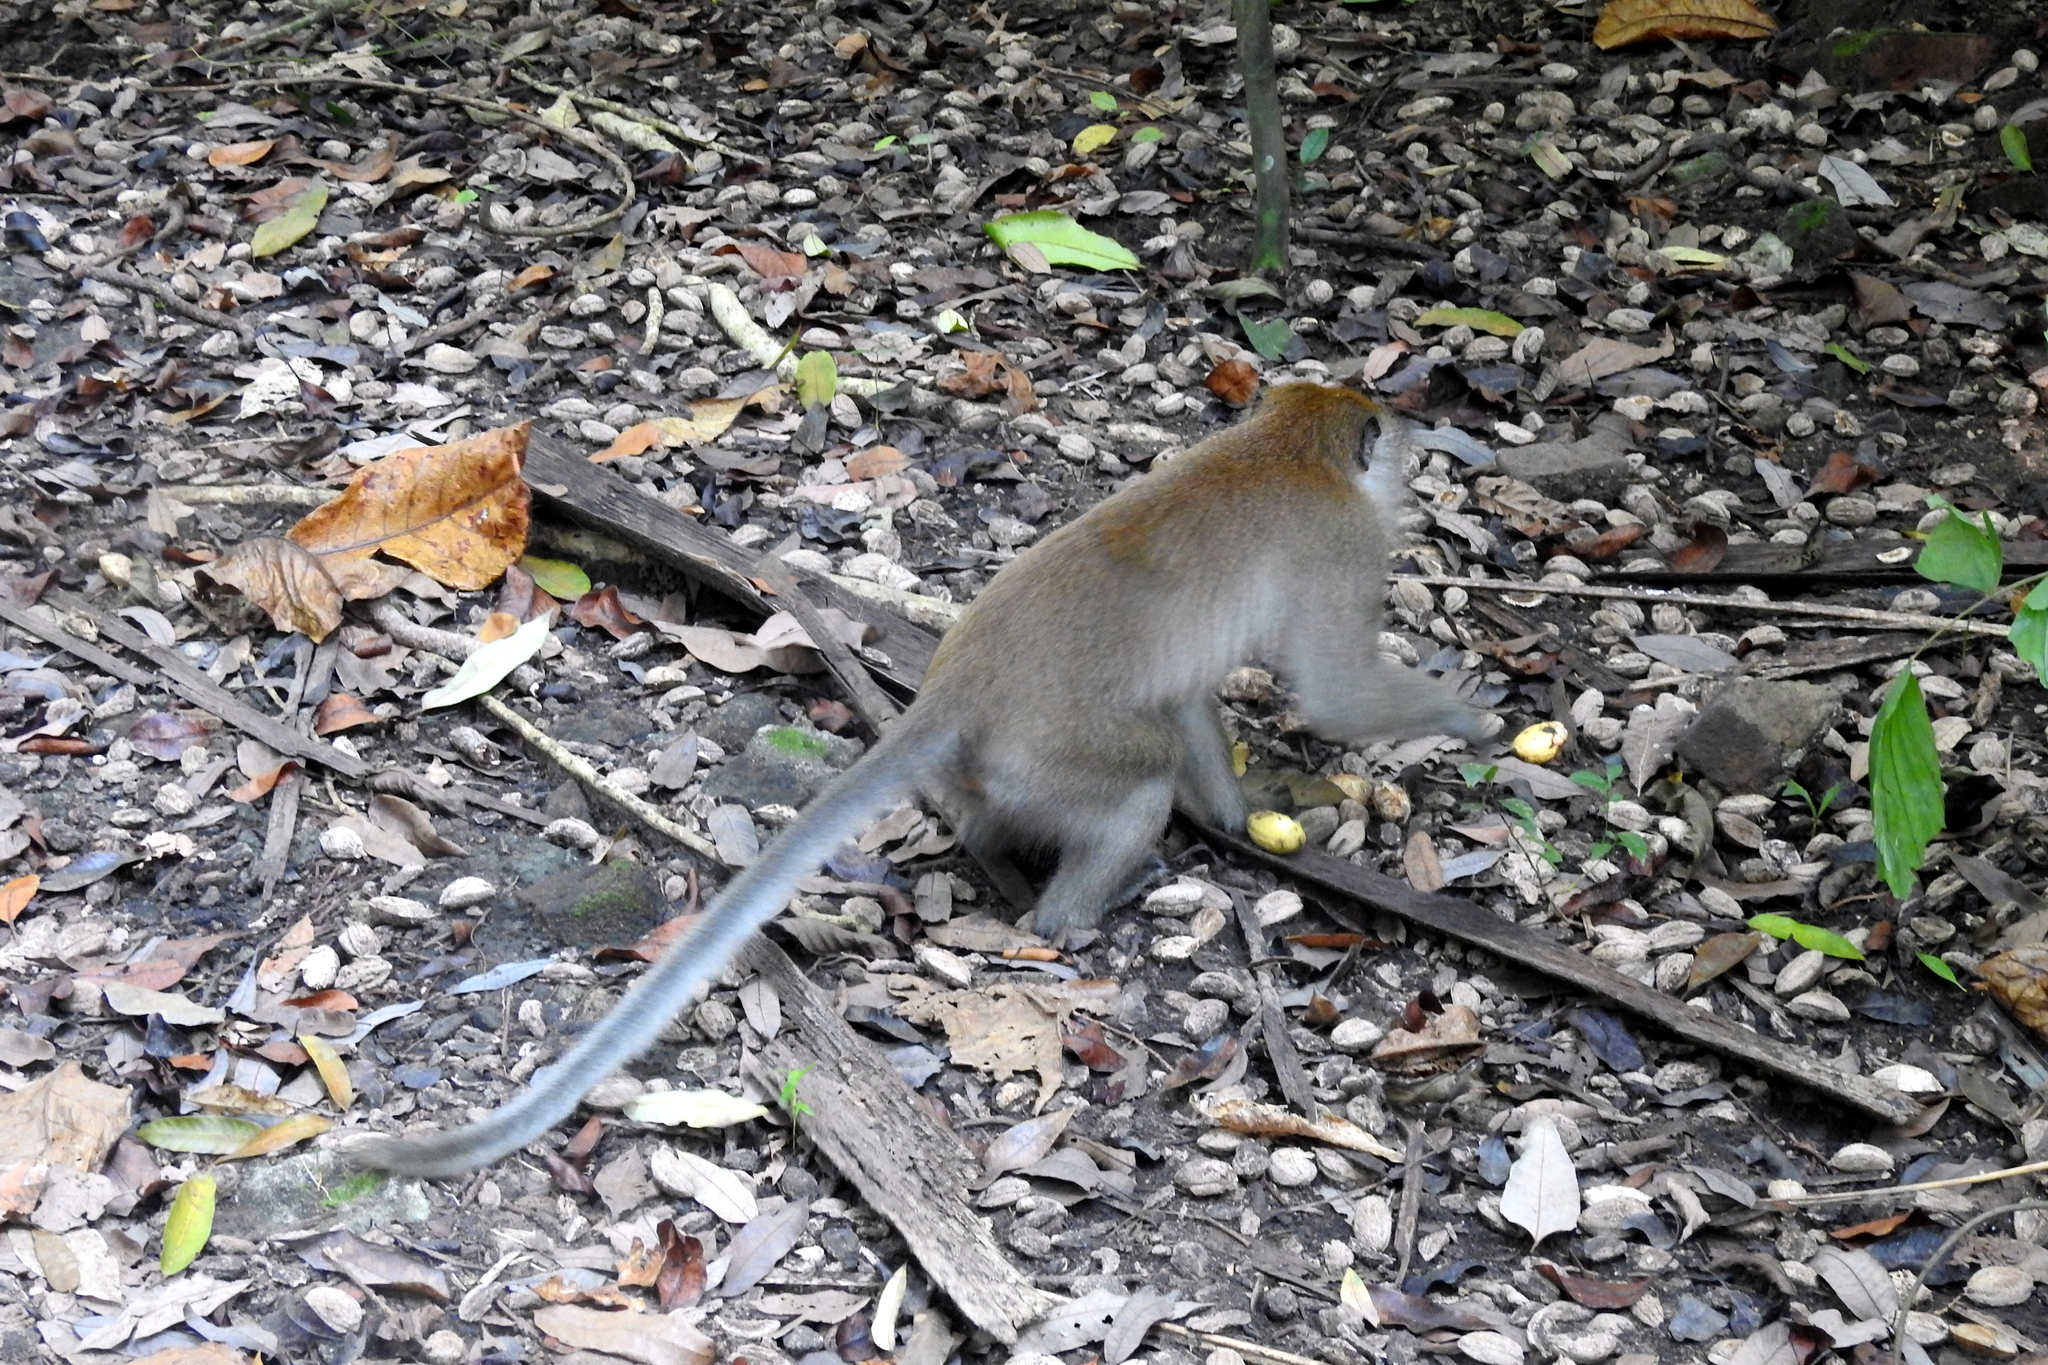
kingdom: Animalia
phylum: Chordata
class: Mammalia
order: Primates
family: Cercopithecidae
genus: Macaca
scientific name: Macaca fascicularis
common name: Crab-eating macaque
